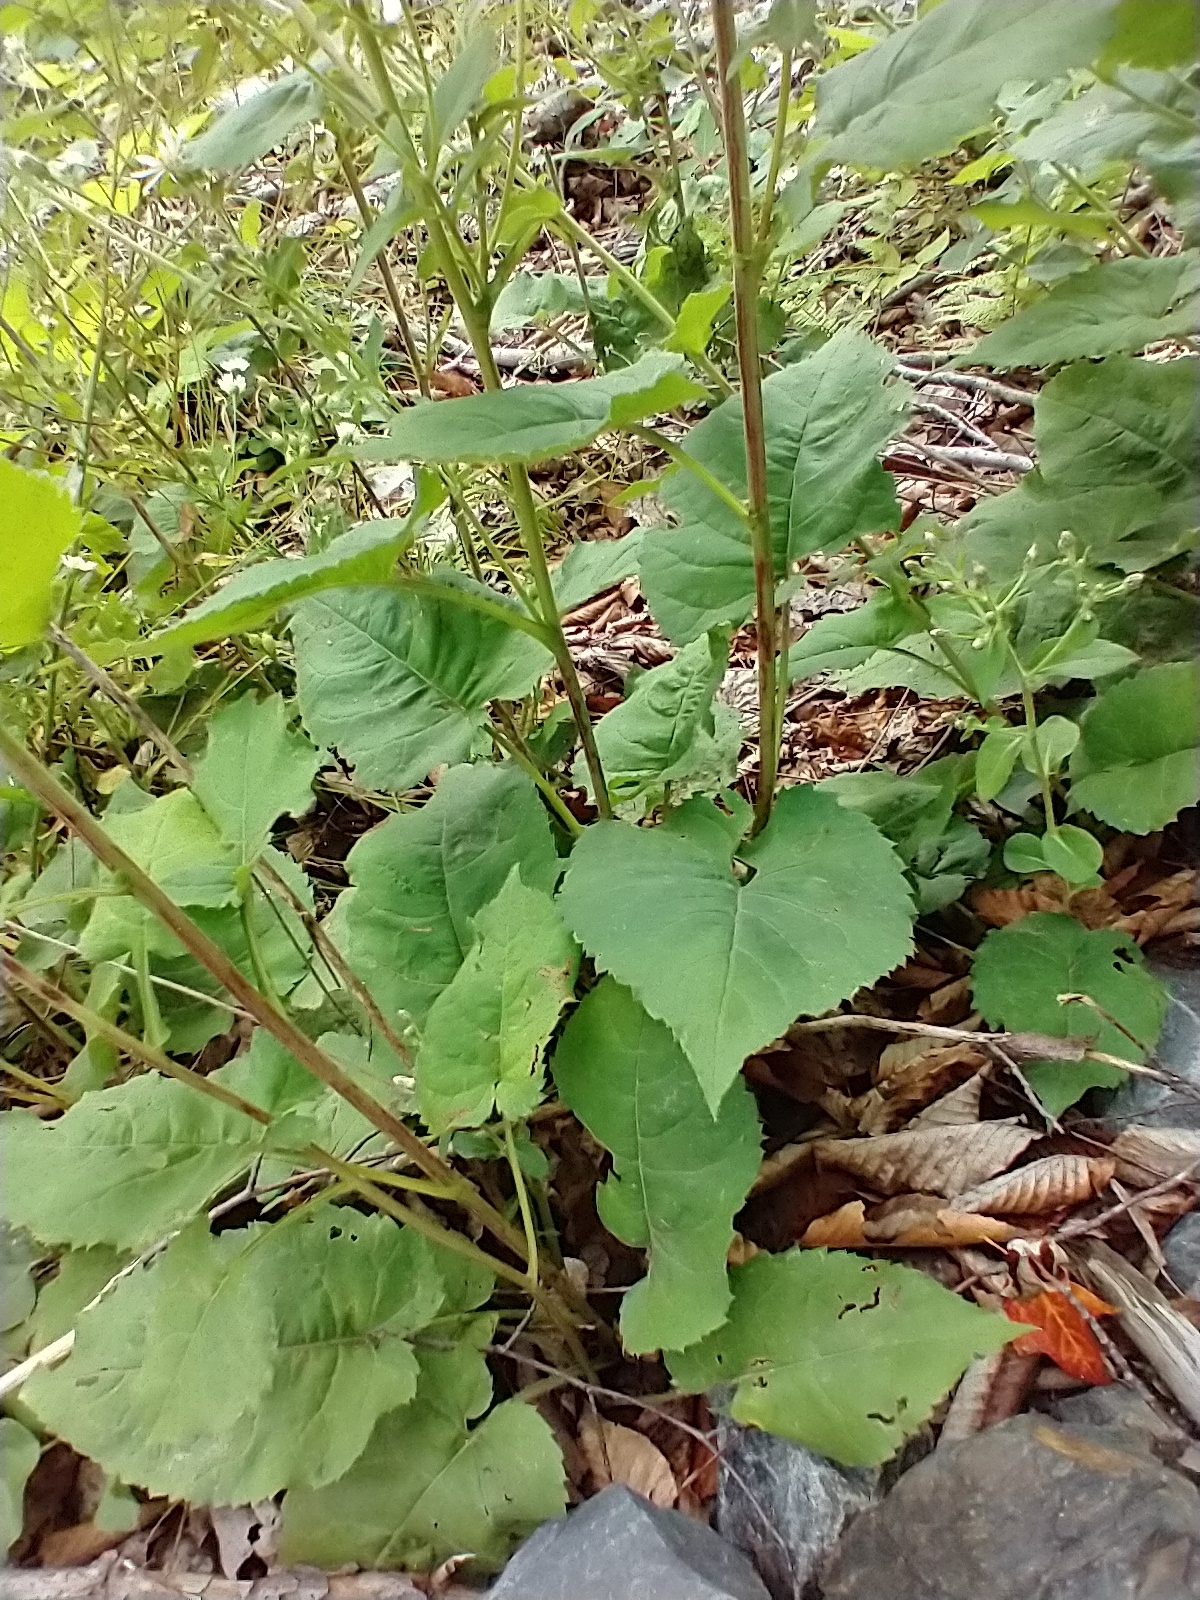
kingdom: Plantae
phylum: Tracheophyta
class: Magnoliopsida
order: Asterales
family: Asteraceae
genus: Eurybia
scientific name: Eurybia macrophylla
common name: Big-leaved aster
